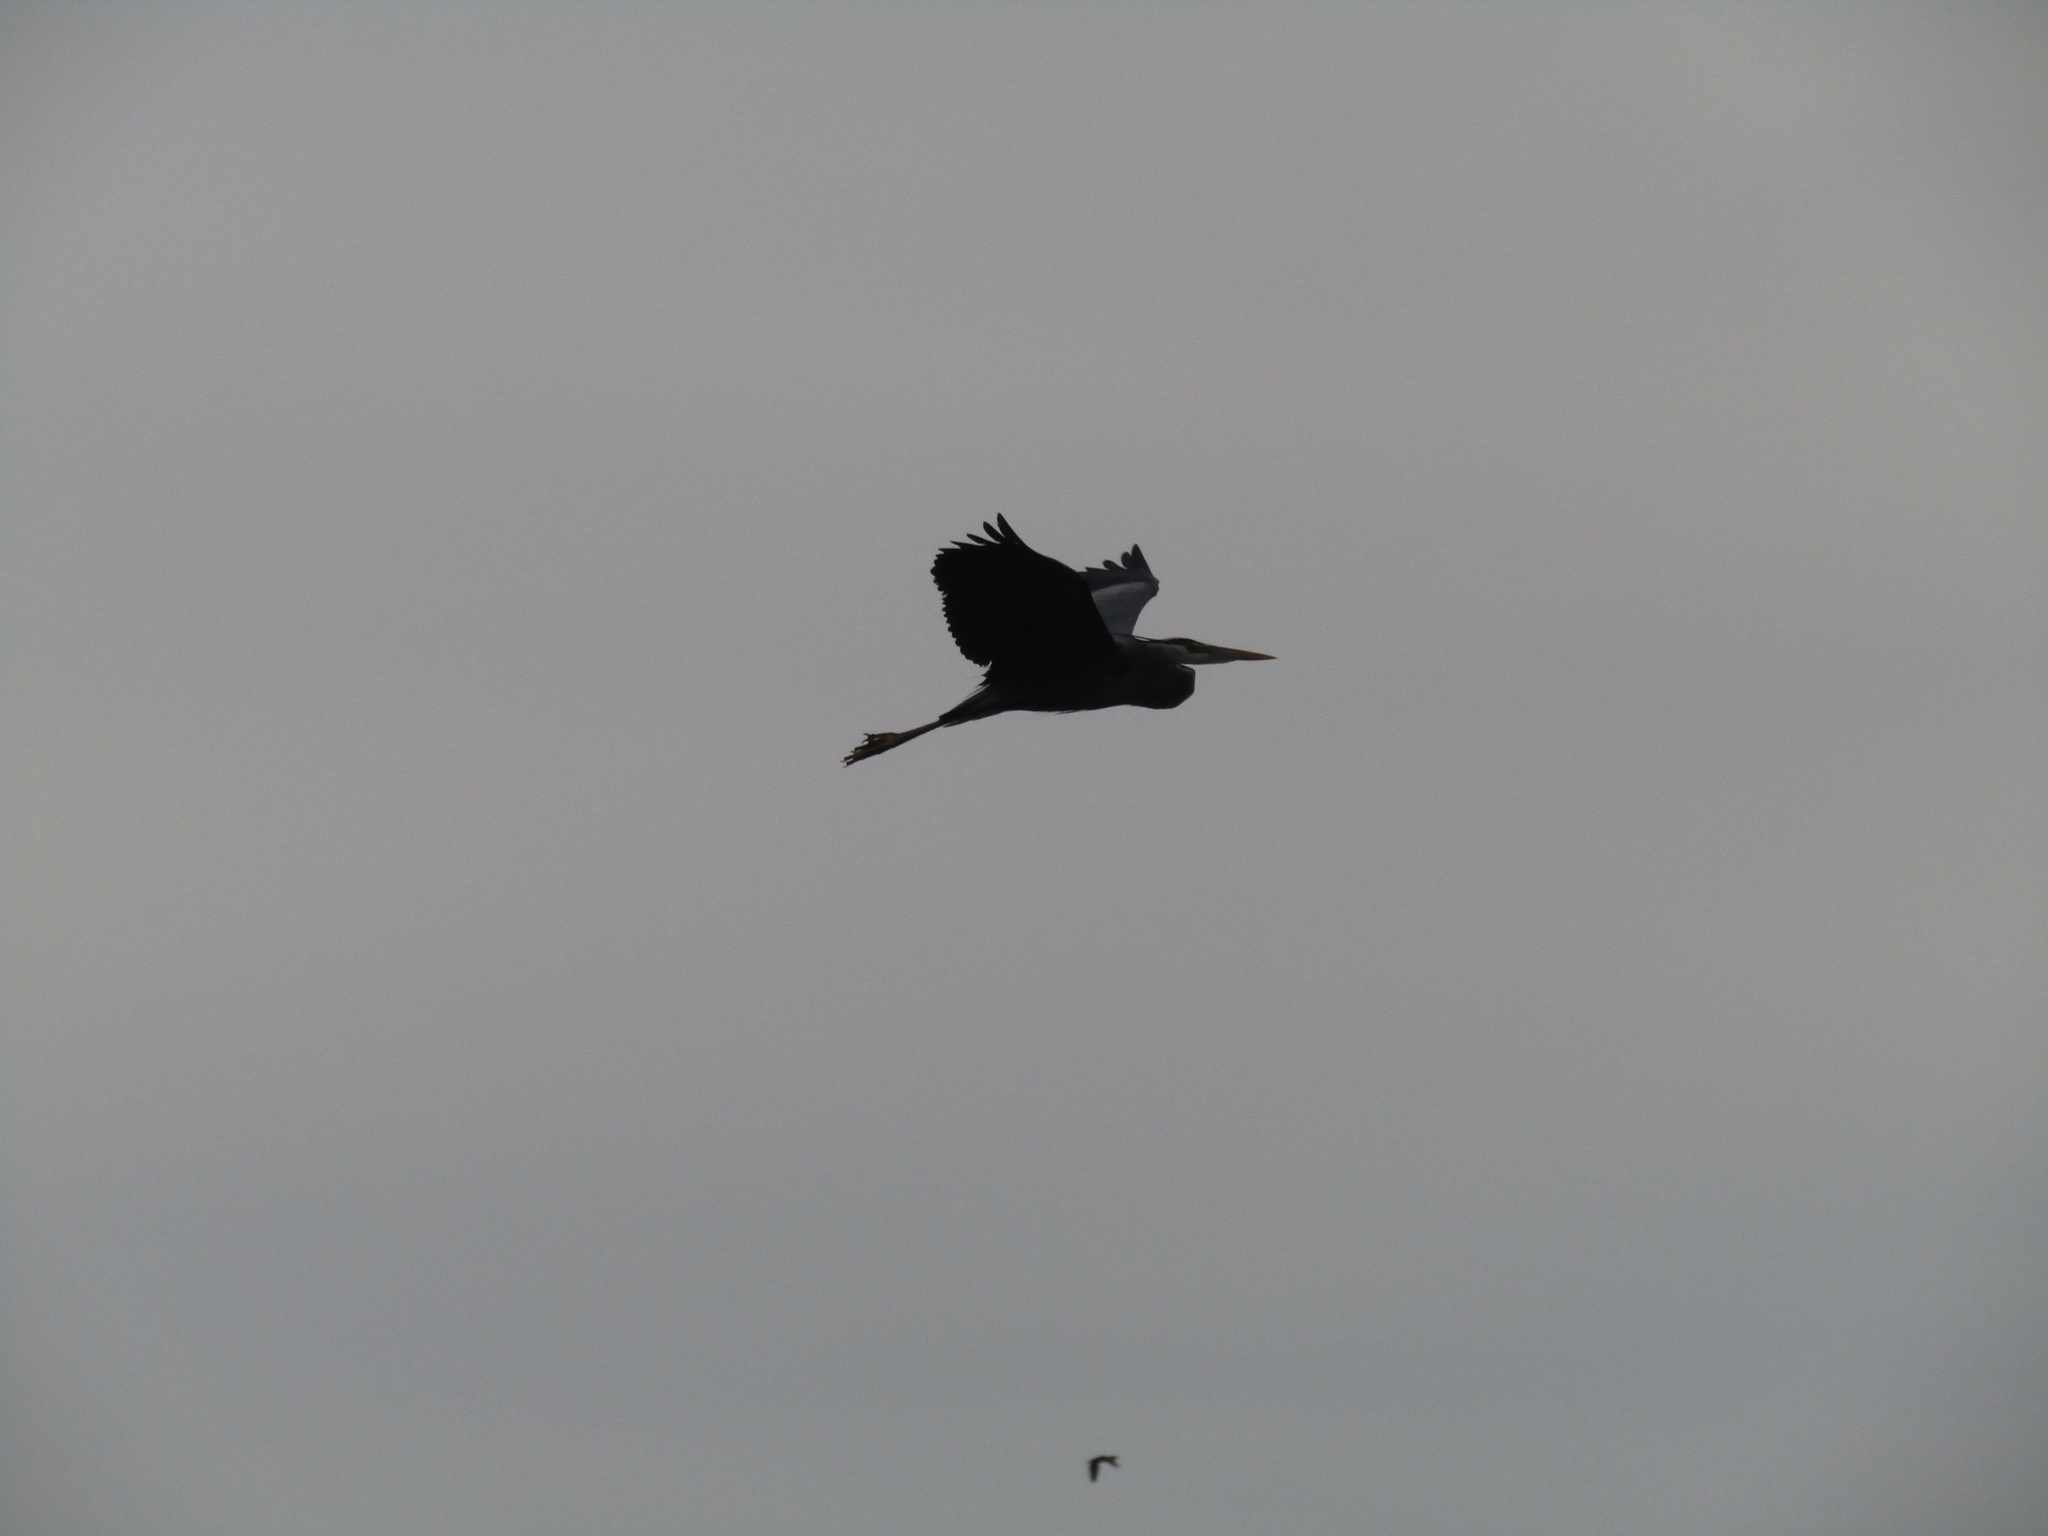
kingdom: Animalia
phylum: Chordata
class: Aves
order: Pelecaniformes
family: Ardeidae
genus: Ardea
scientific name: Ardea herodias
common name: Great blue heron
